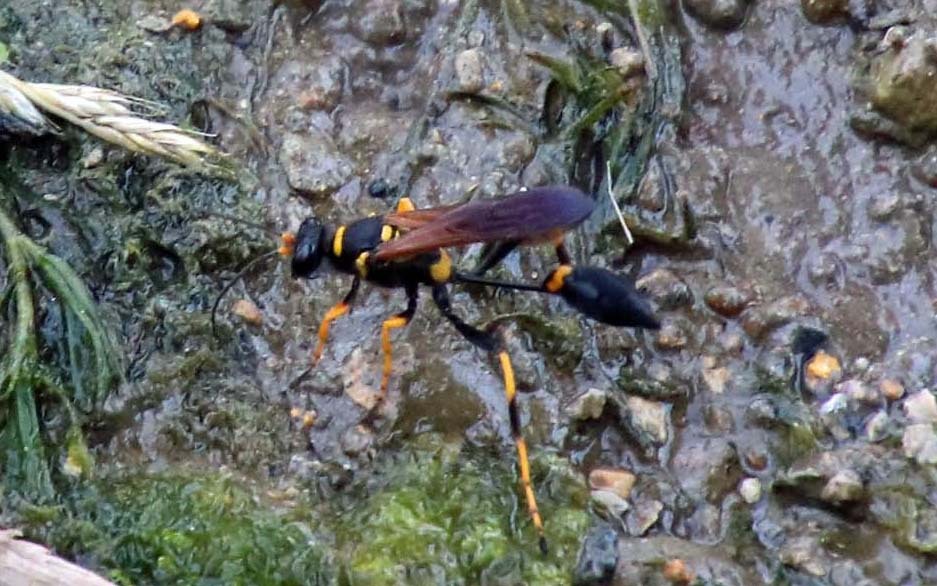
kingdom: Animalia
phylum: Arthropoda
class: Insecta
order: Hymenoptera
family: Sphecidae
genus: Sceliphron
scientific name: Sceliphron caementarium
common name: Mud dauber
